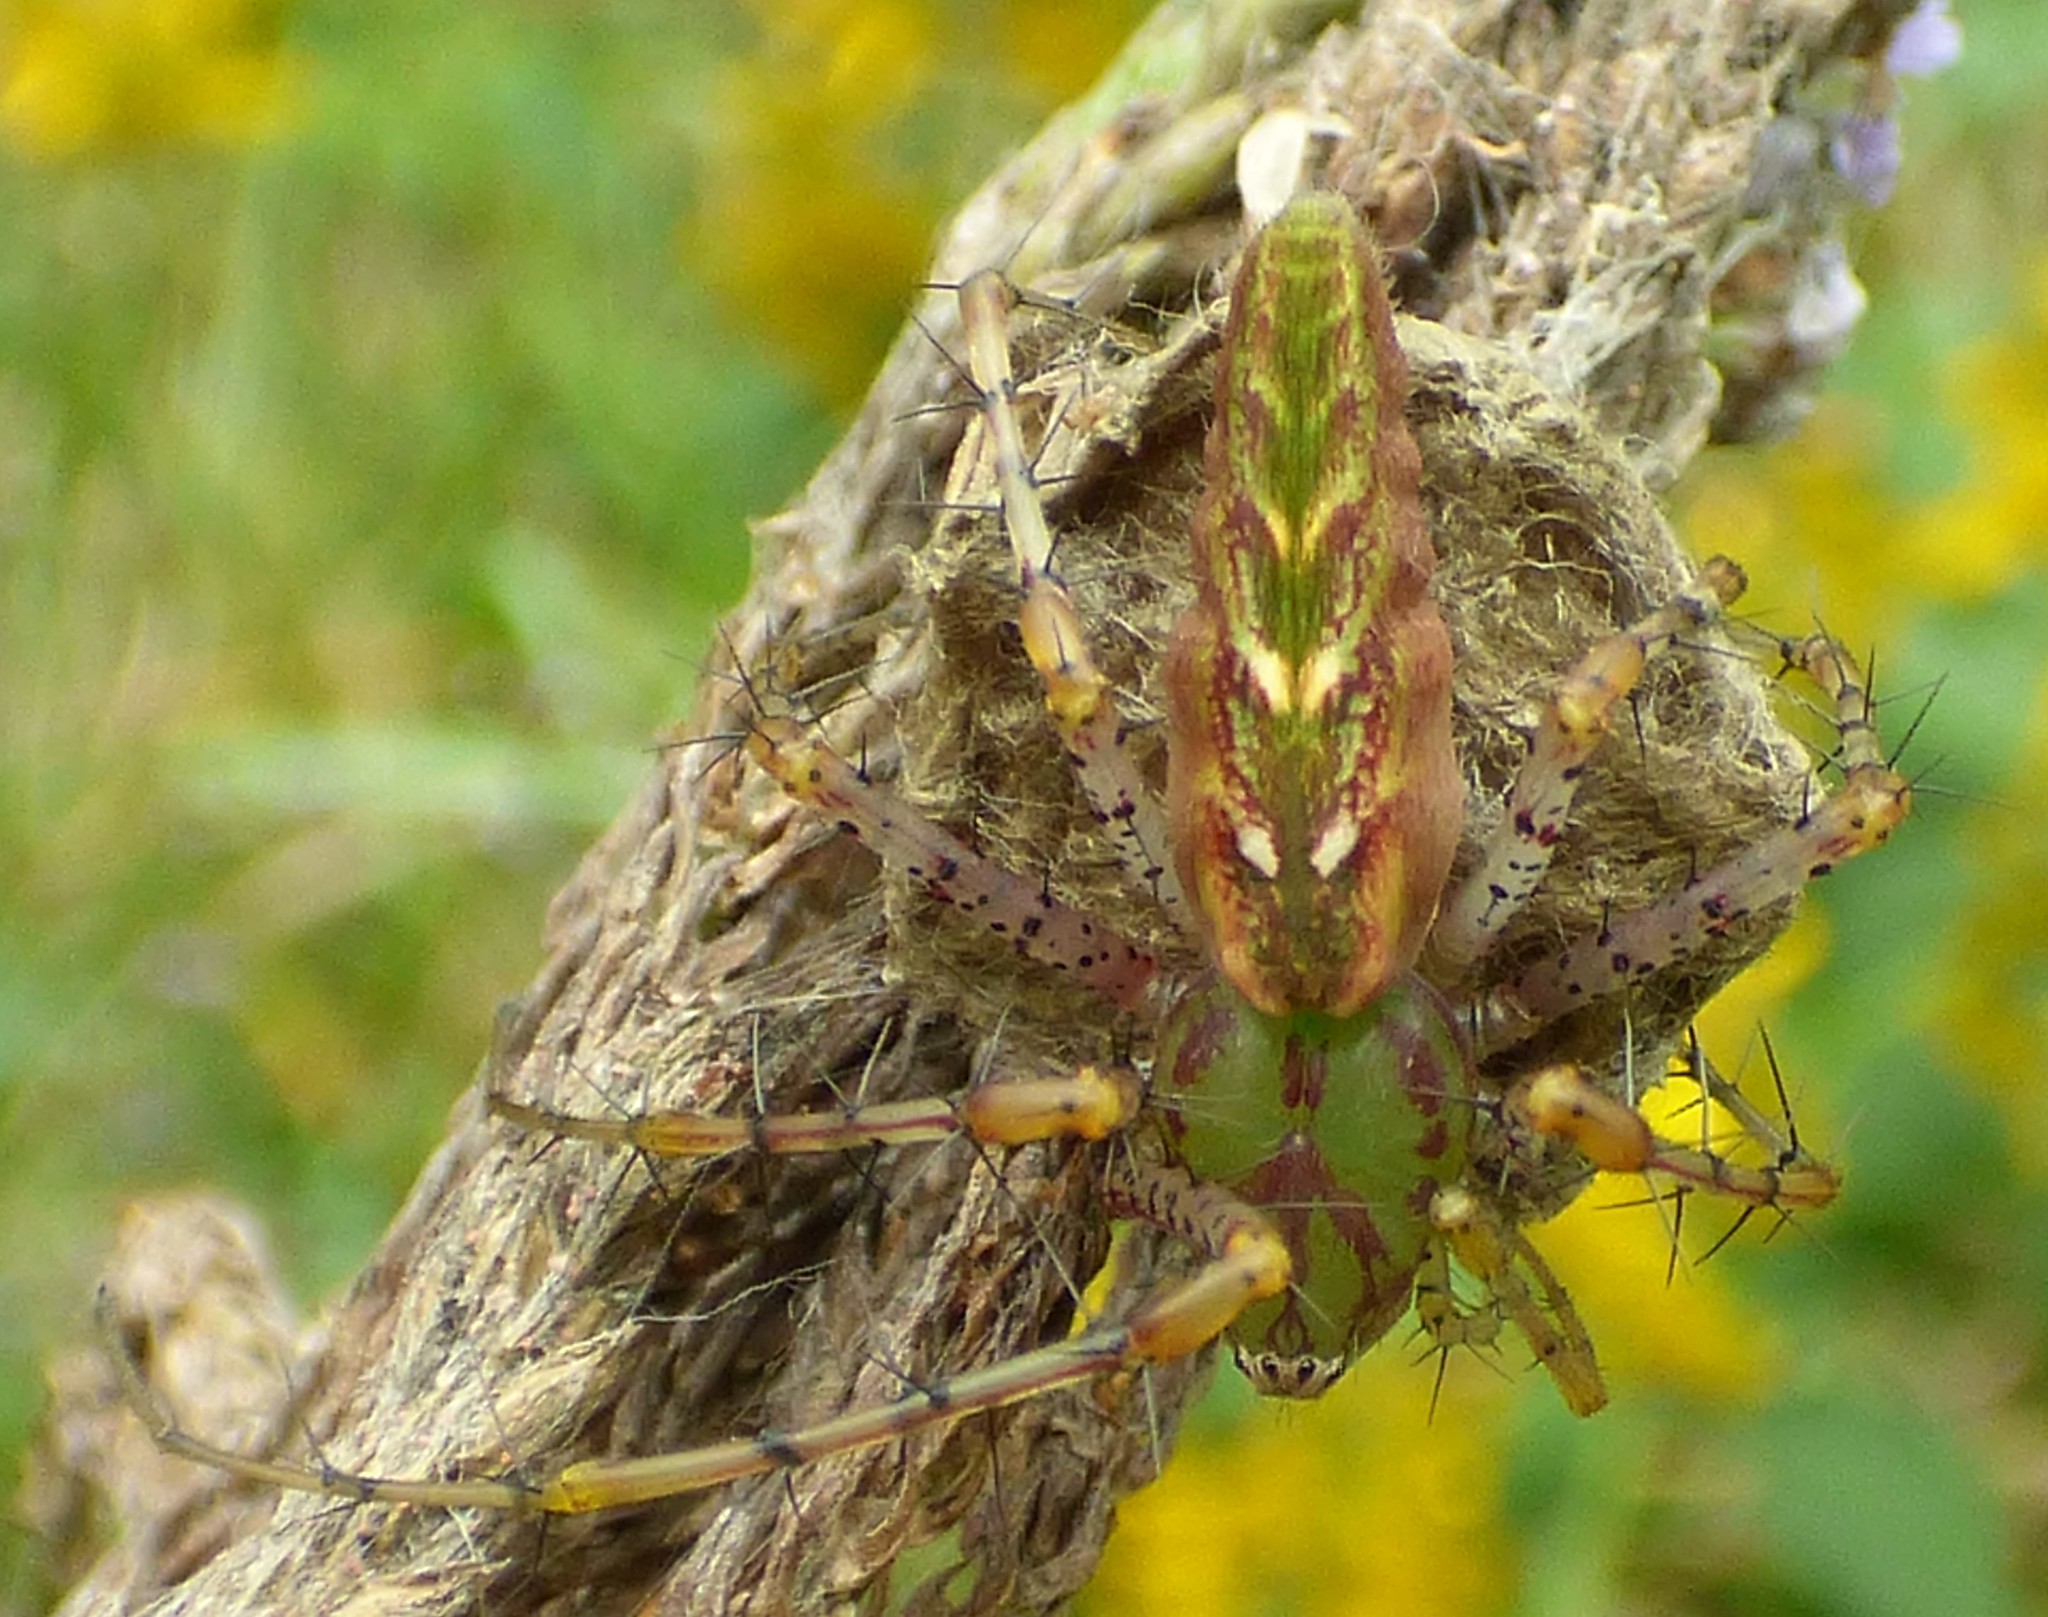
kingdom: Animalia
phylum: Arthropoda
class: Arachnida
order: Araneae
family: Oxyopidae
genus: Peucetia
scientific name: Peucetia viridans
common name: Lynx spiders
